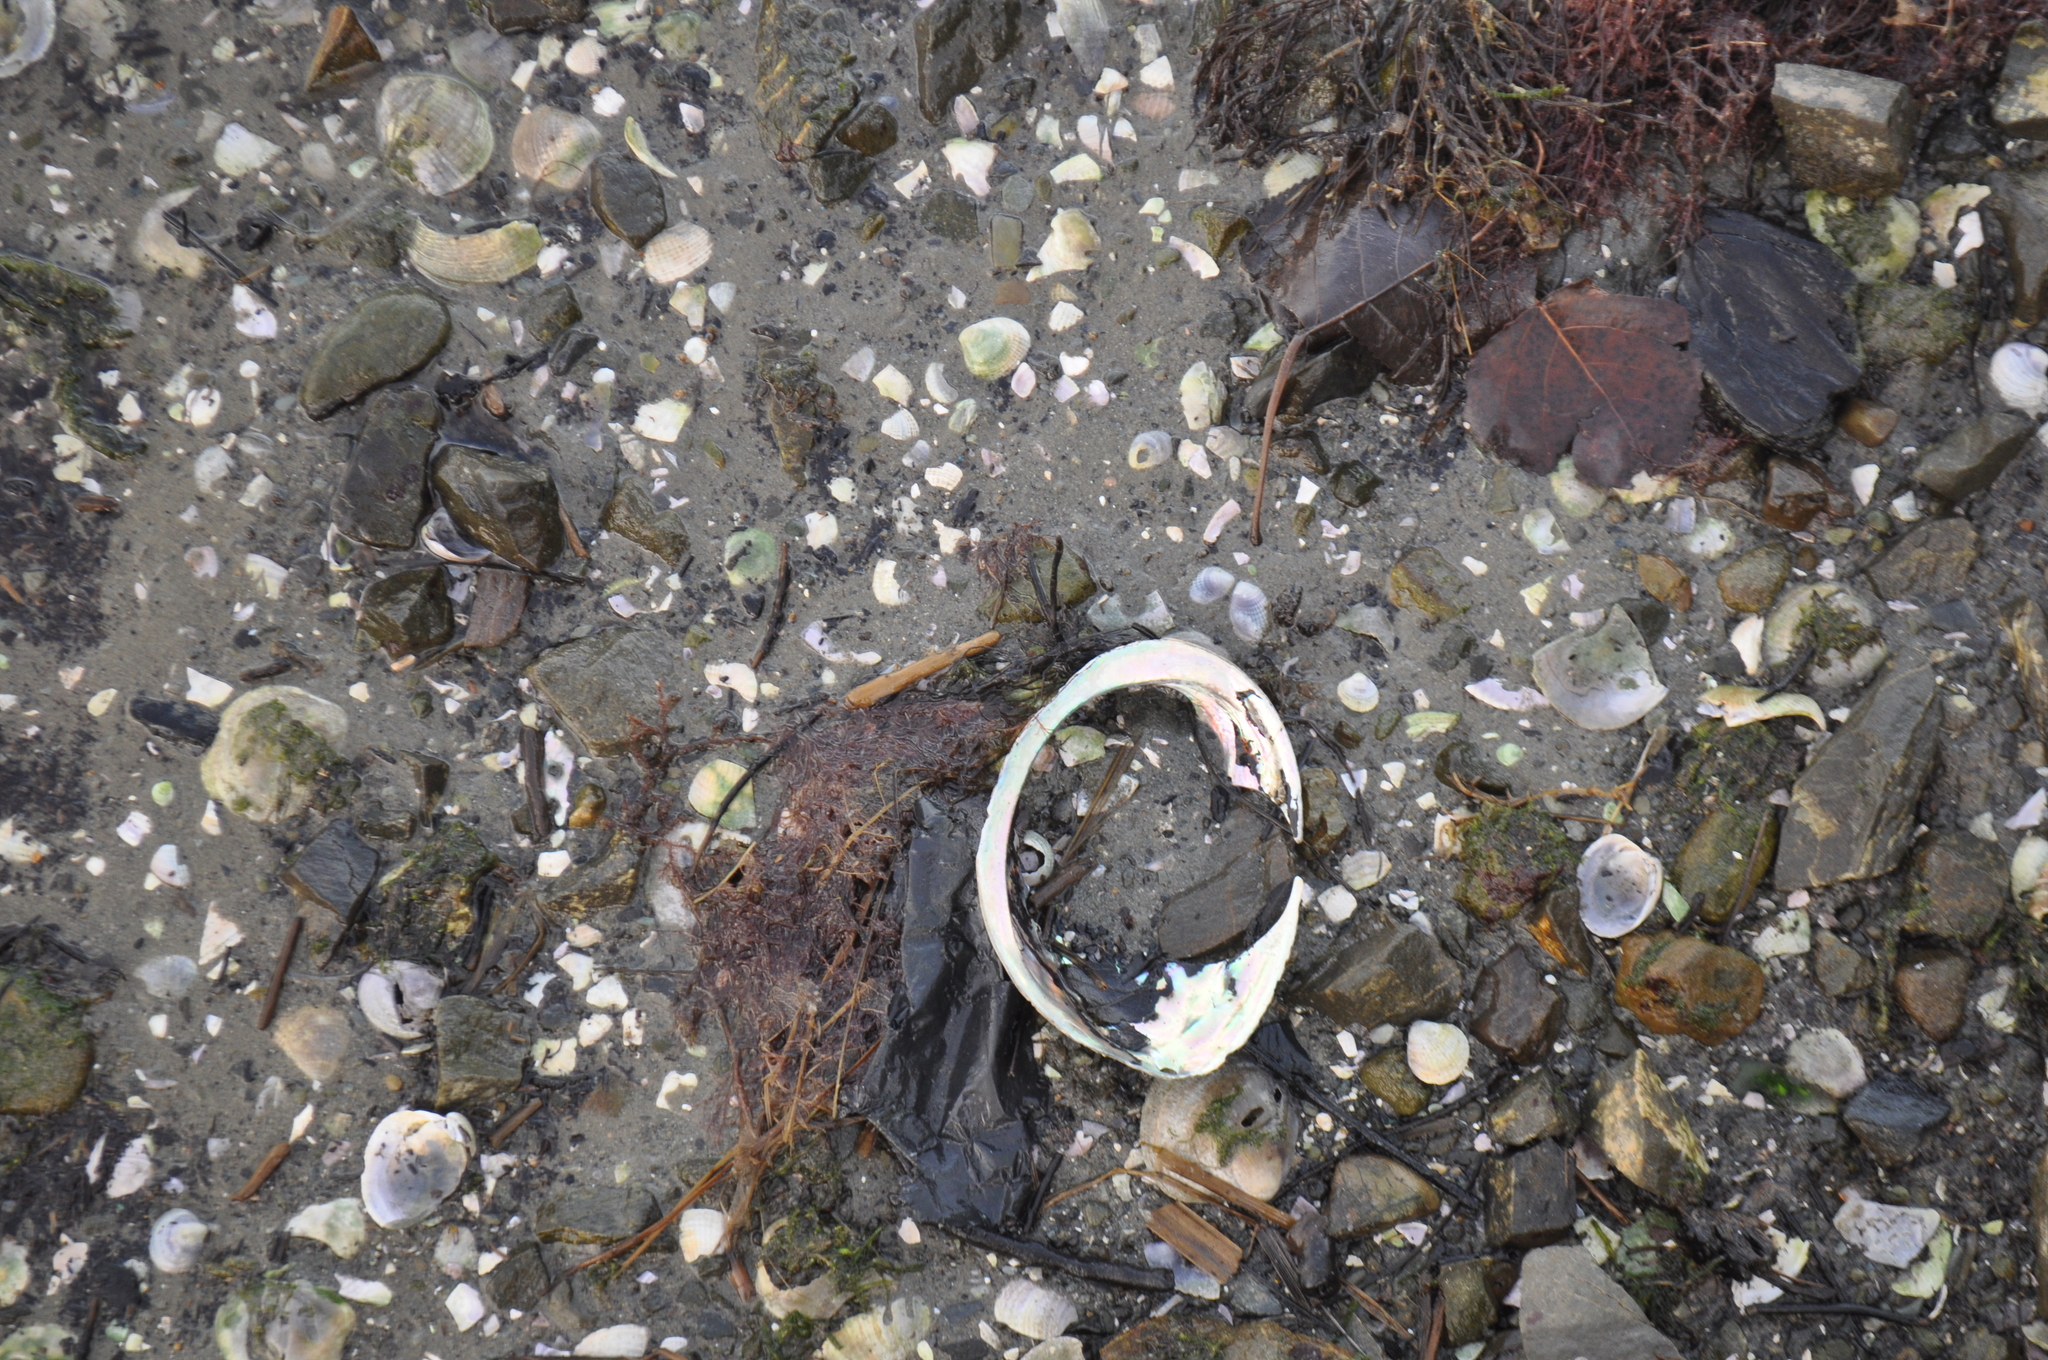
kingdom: Animalia
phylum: Mollusca
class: Gastropoda
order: Lepetellida
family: Haliotidae
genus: Haliotis
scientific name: Haliotis iris
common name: Abalone
